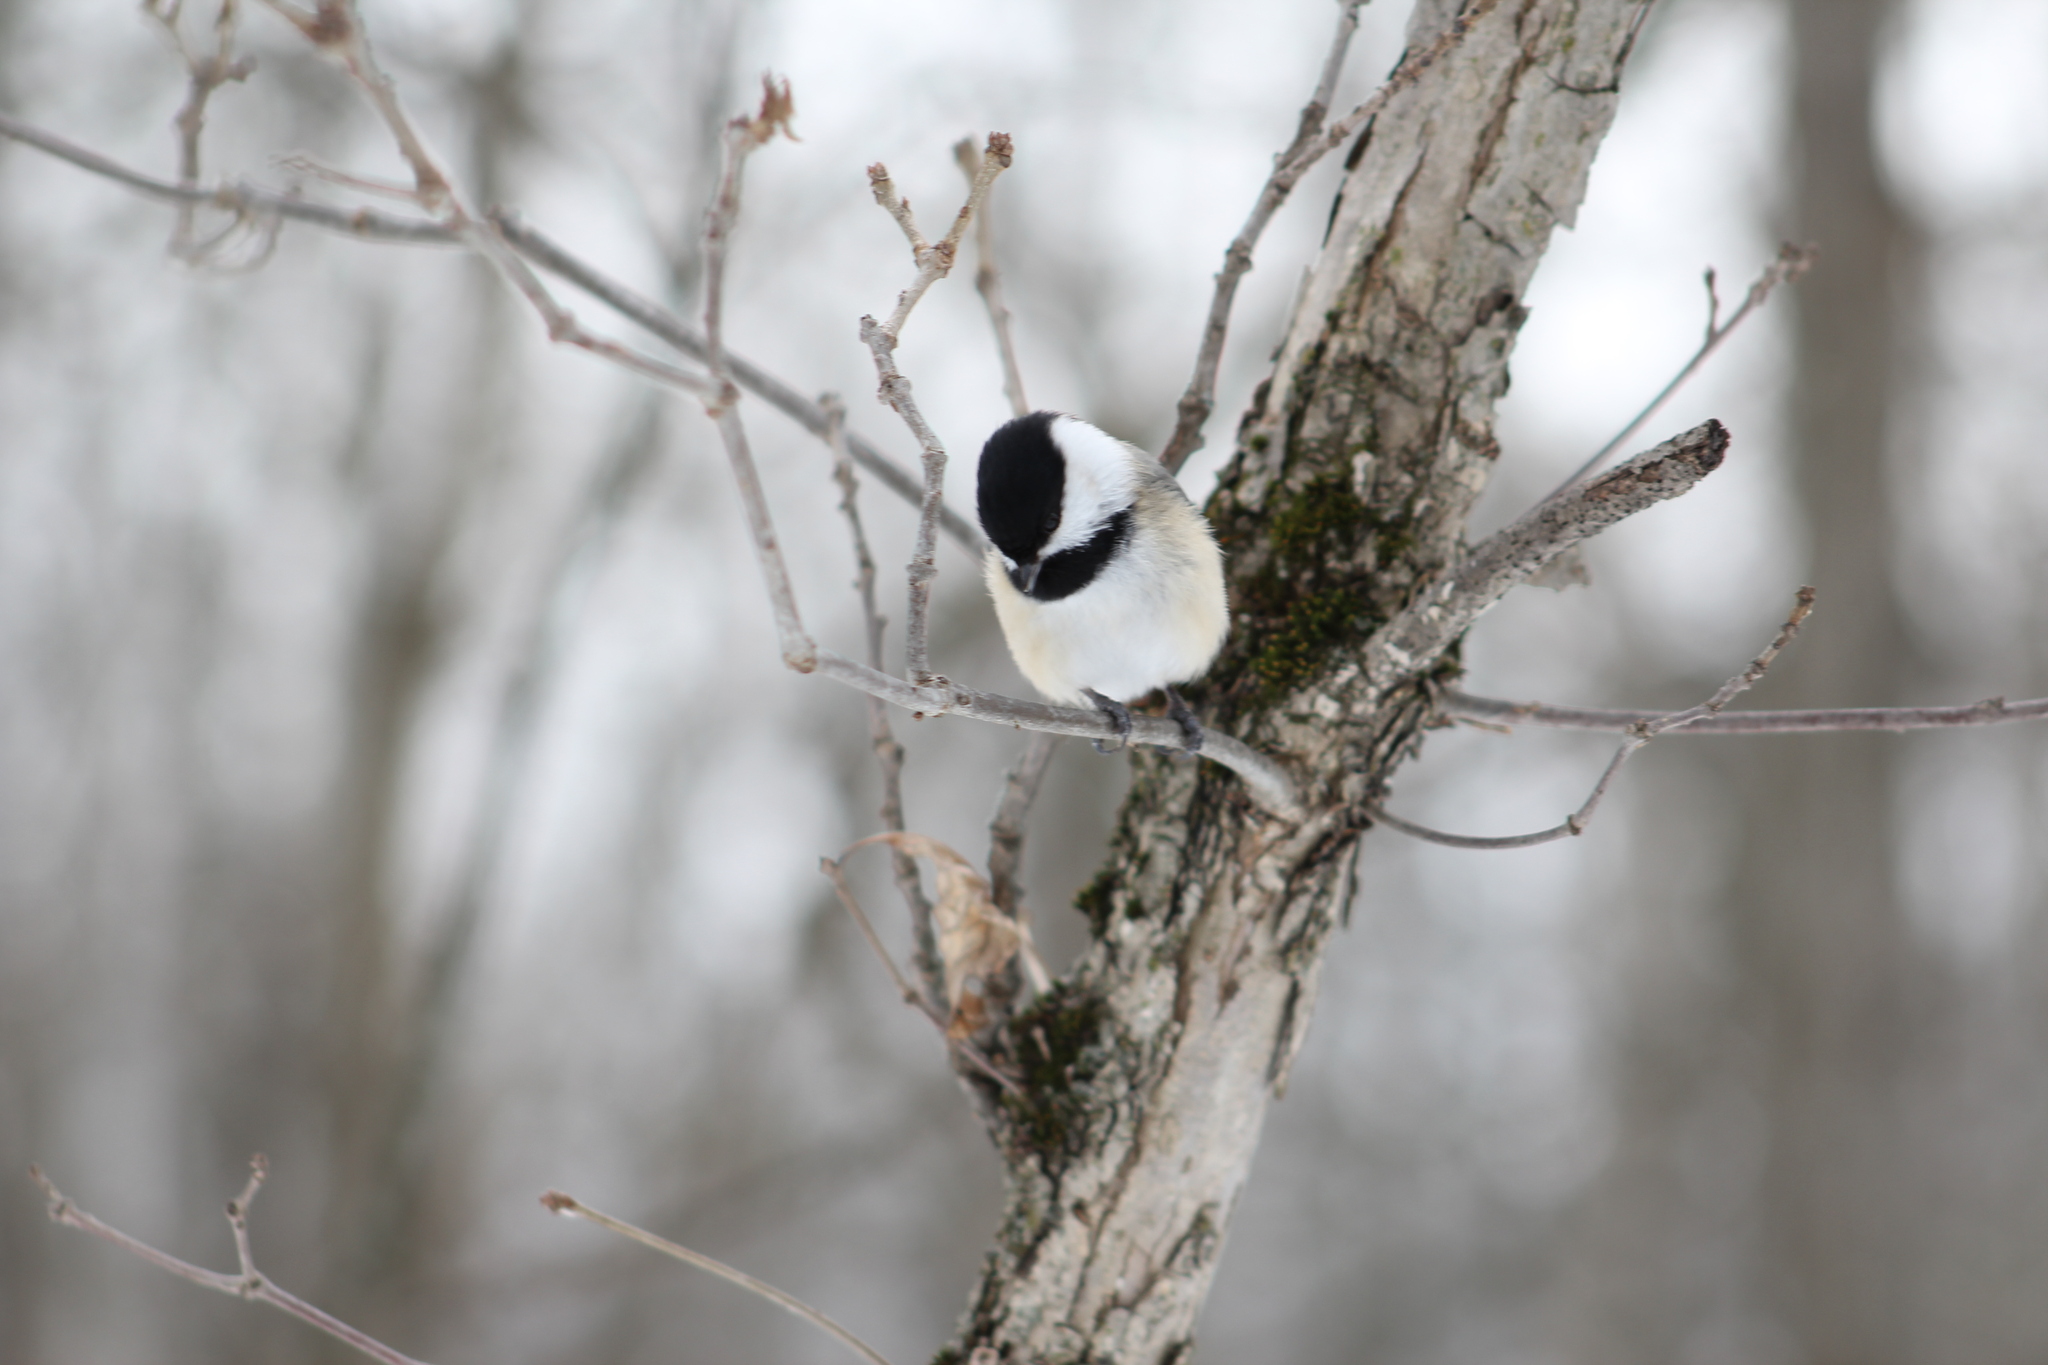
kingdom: Animalia
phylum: Chordata
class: Aves
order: Passeriformes
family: Paridae
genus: Poecile
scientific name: Poecile atricapillus
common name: Black-capped chickadee
